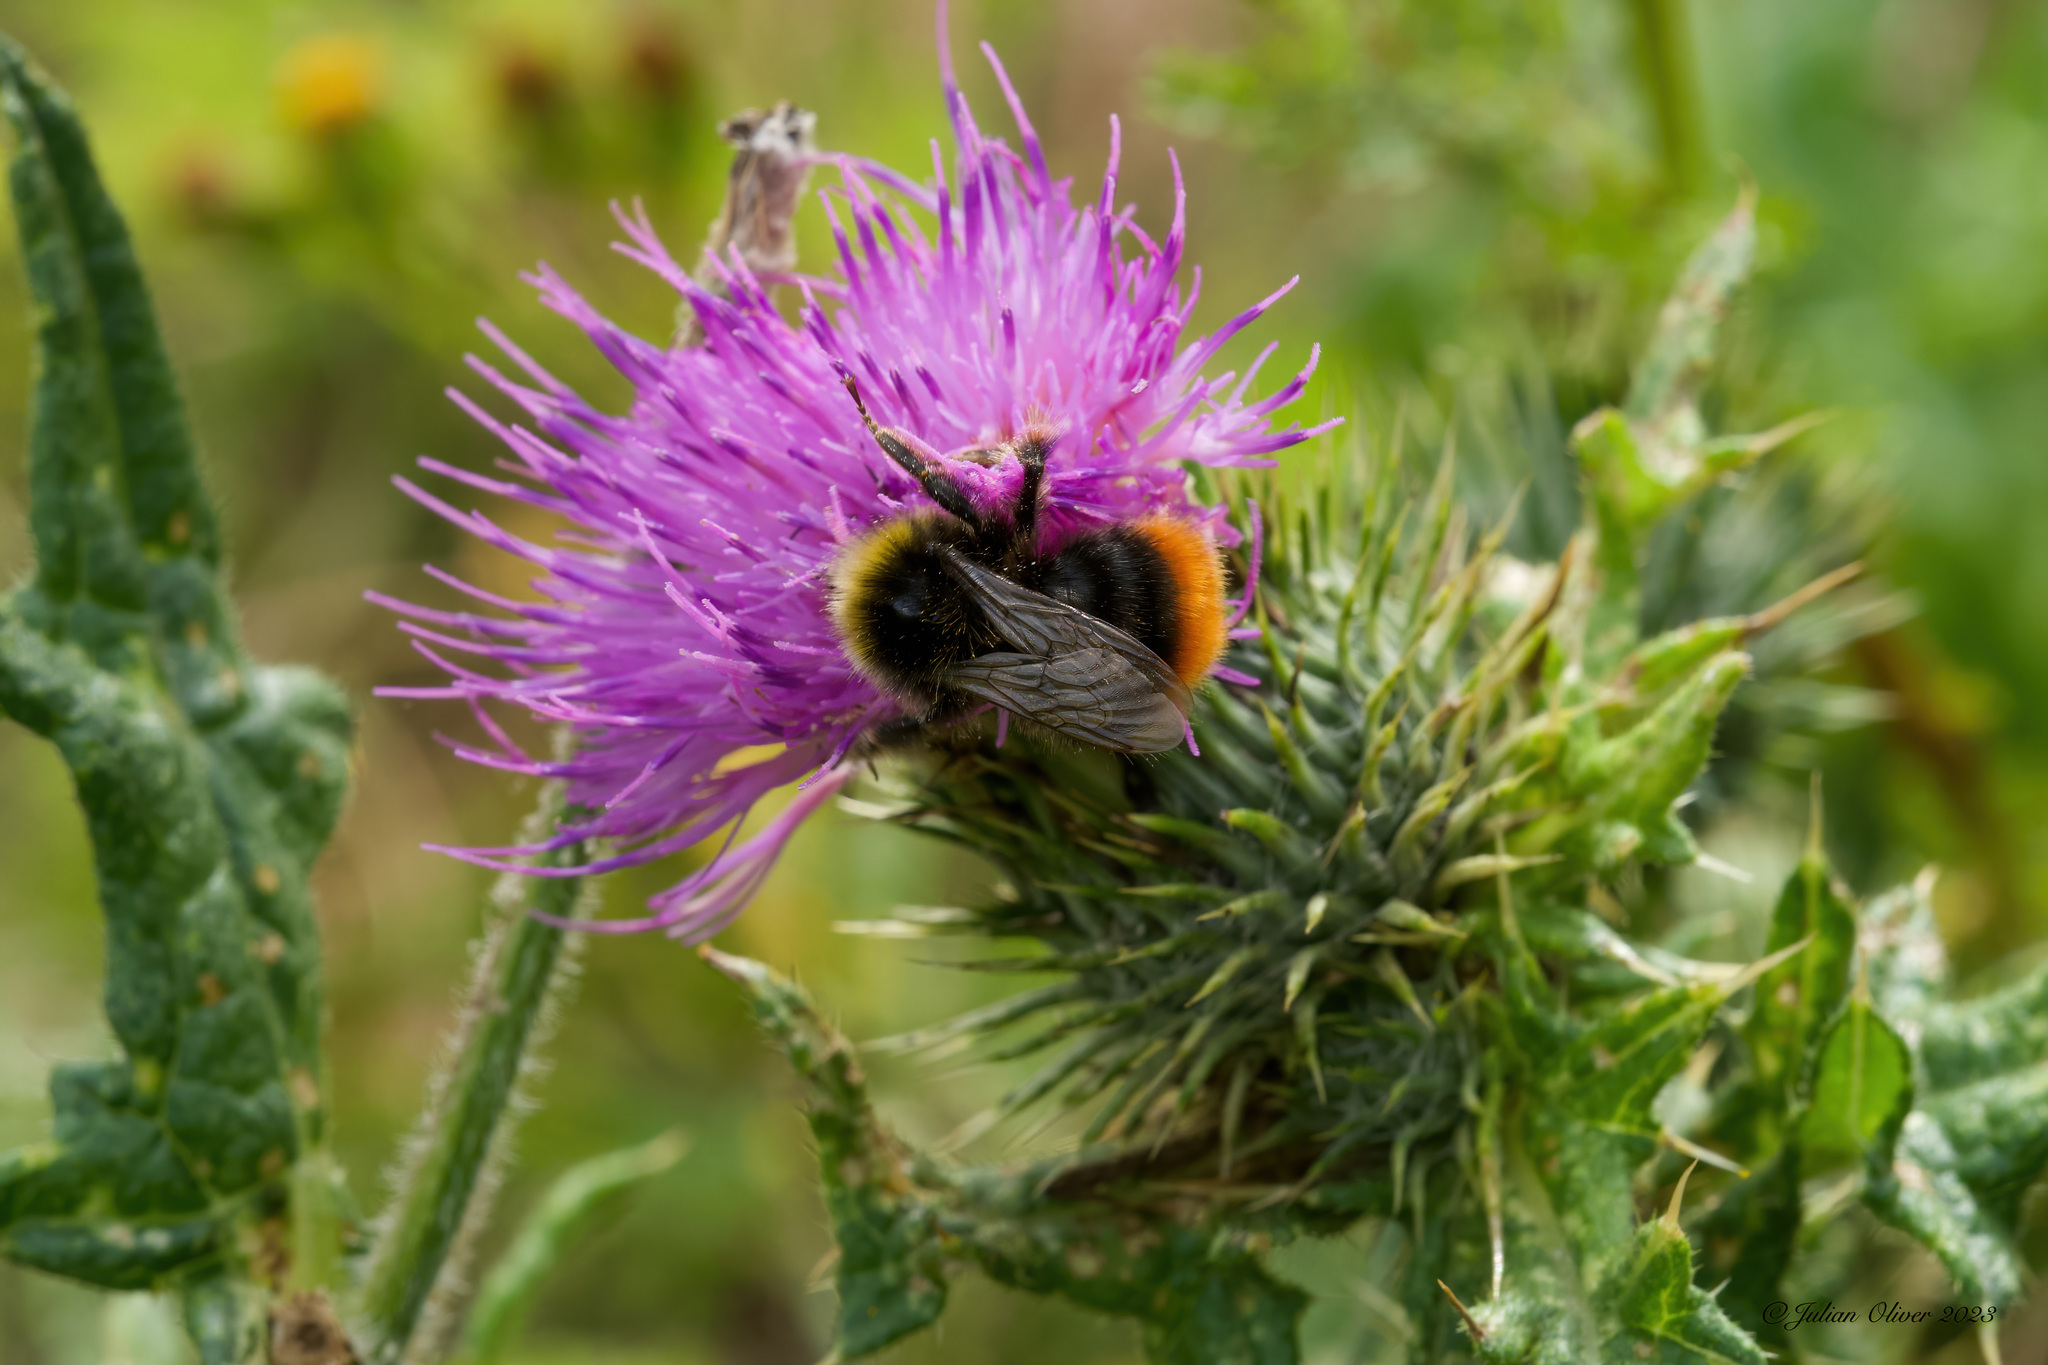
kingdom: Animalia
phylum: Arthropoda
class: Insecta
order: Hymenoptera
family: Apidae
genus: Bombus
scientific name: Bombus lapidarius
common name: Large red-tailed humble-bee
